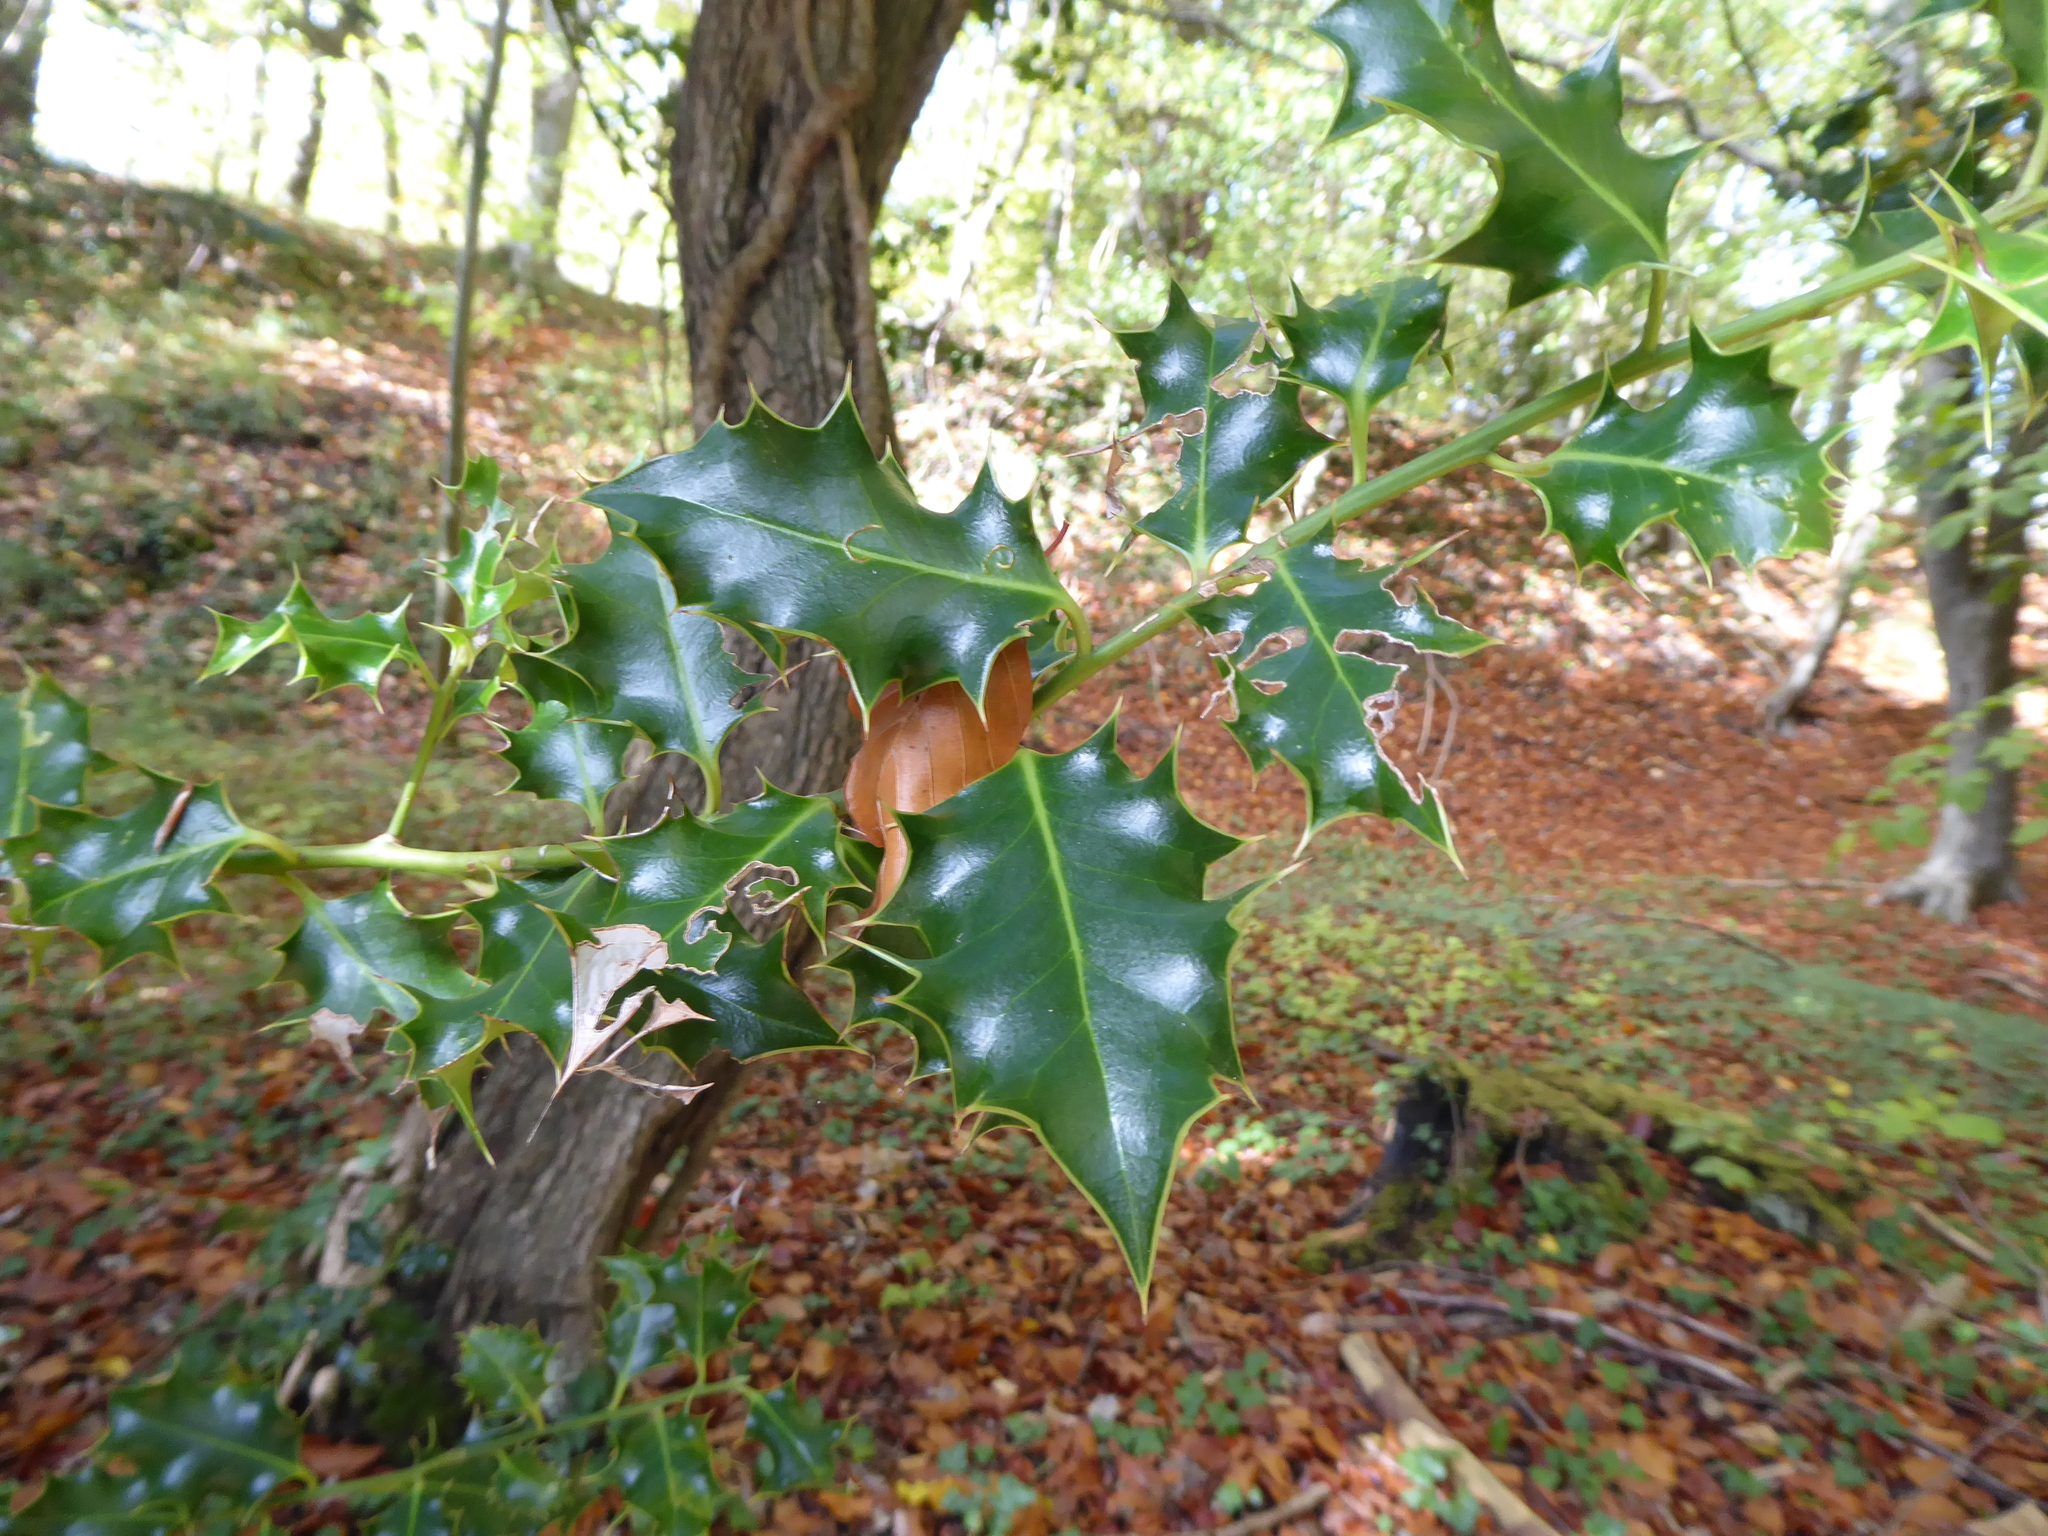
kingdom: Plantae
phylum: Tracheophyta
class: Magnoliopsida
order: Aquifoliales
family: Aquifoliaceae
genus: Ilex
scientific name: Ilex aquifolium
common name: English holly
